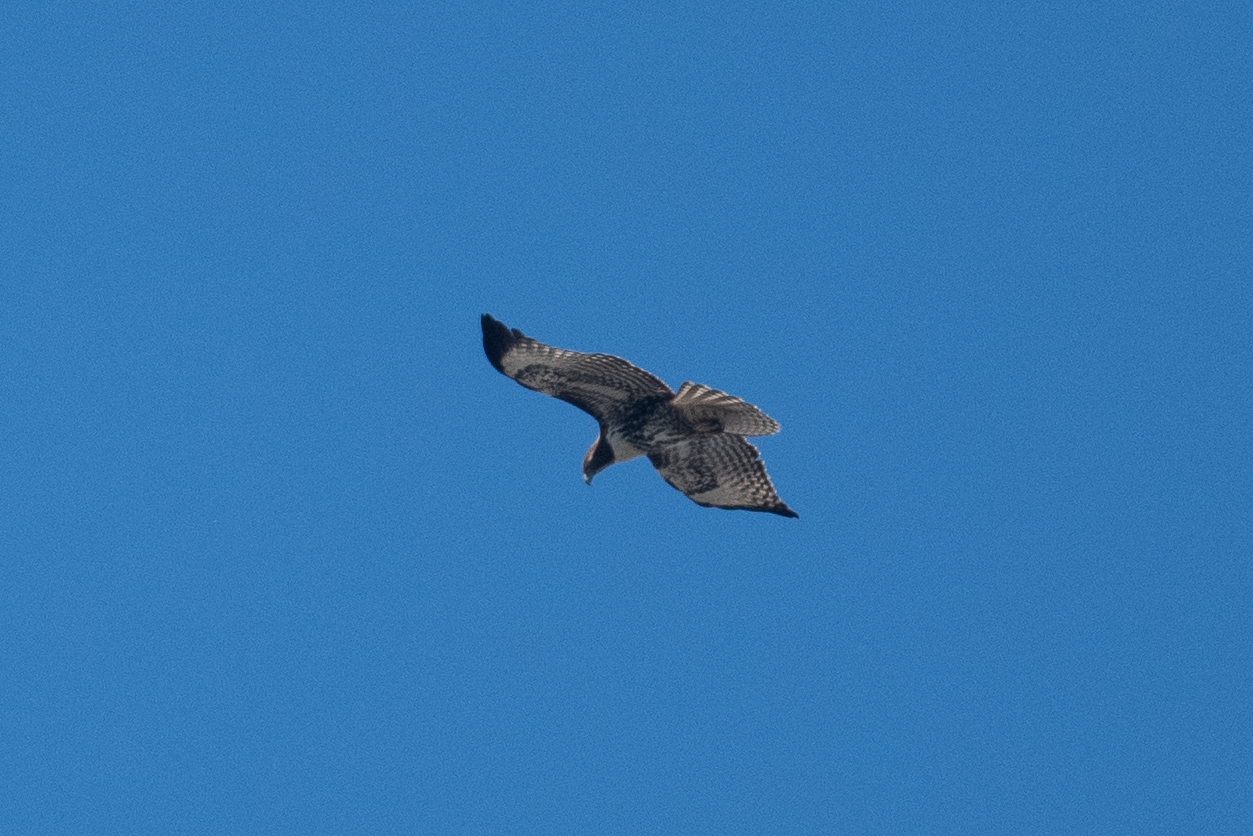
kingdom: Animalia
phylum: Chordata
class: Aves
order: Accipitriformes
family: Accipitridae
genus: Buteo
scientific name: Buteo jamaicensis
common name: Red-tailed hawk
